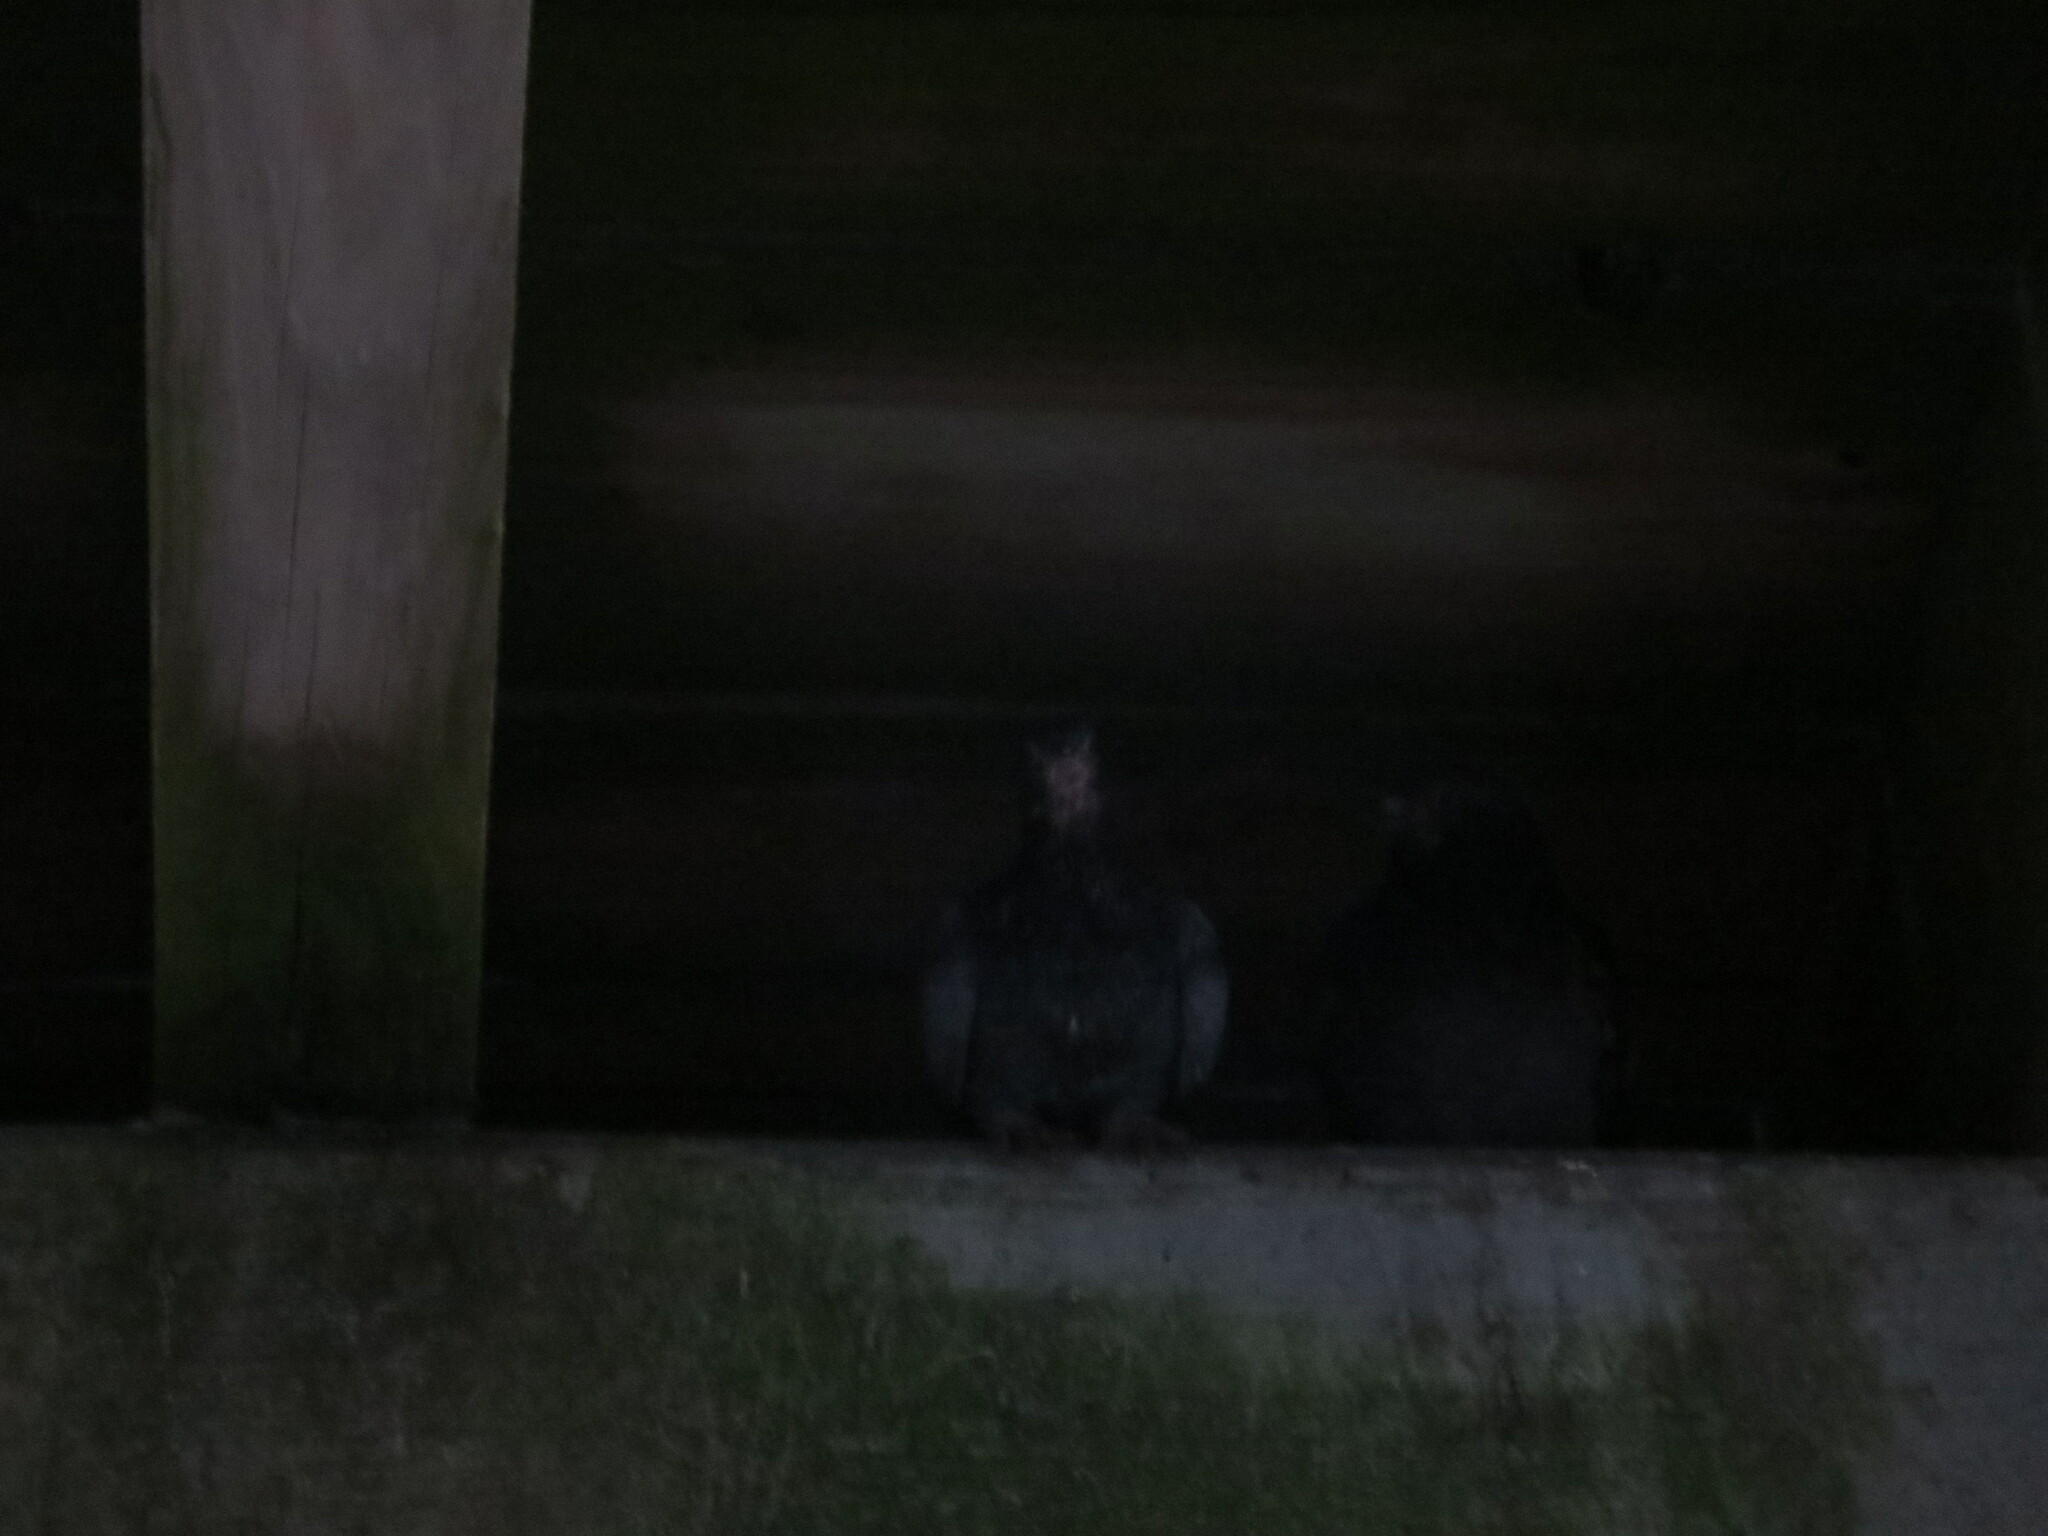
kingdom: Animalia
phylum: Chordata
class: Aves
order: Columbiformes
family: Columbidae
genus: Columba
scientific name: Columba livia
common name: Rock pigeon
